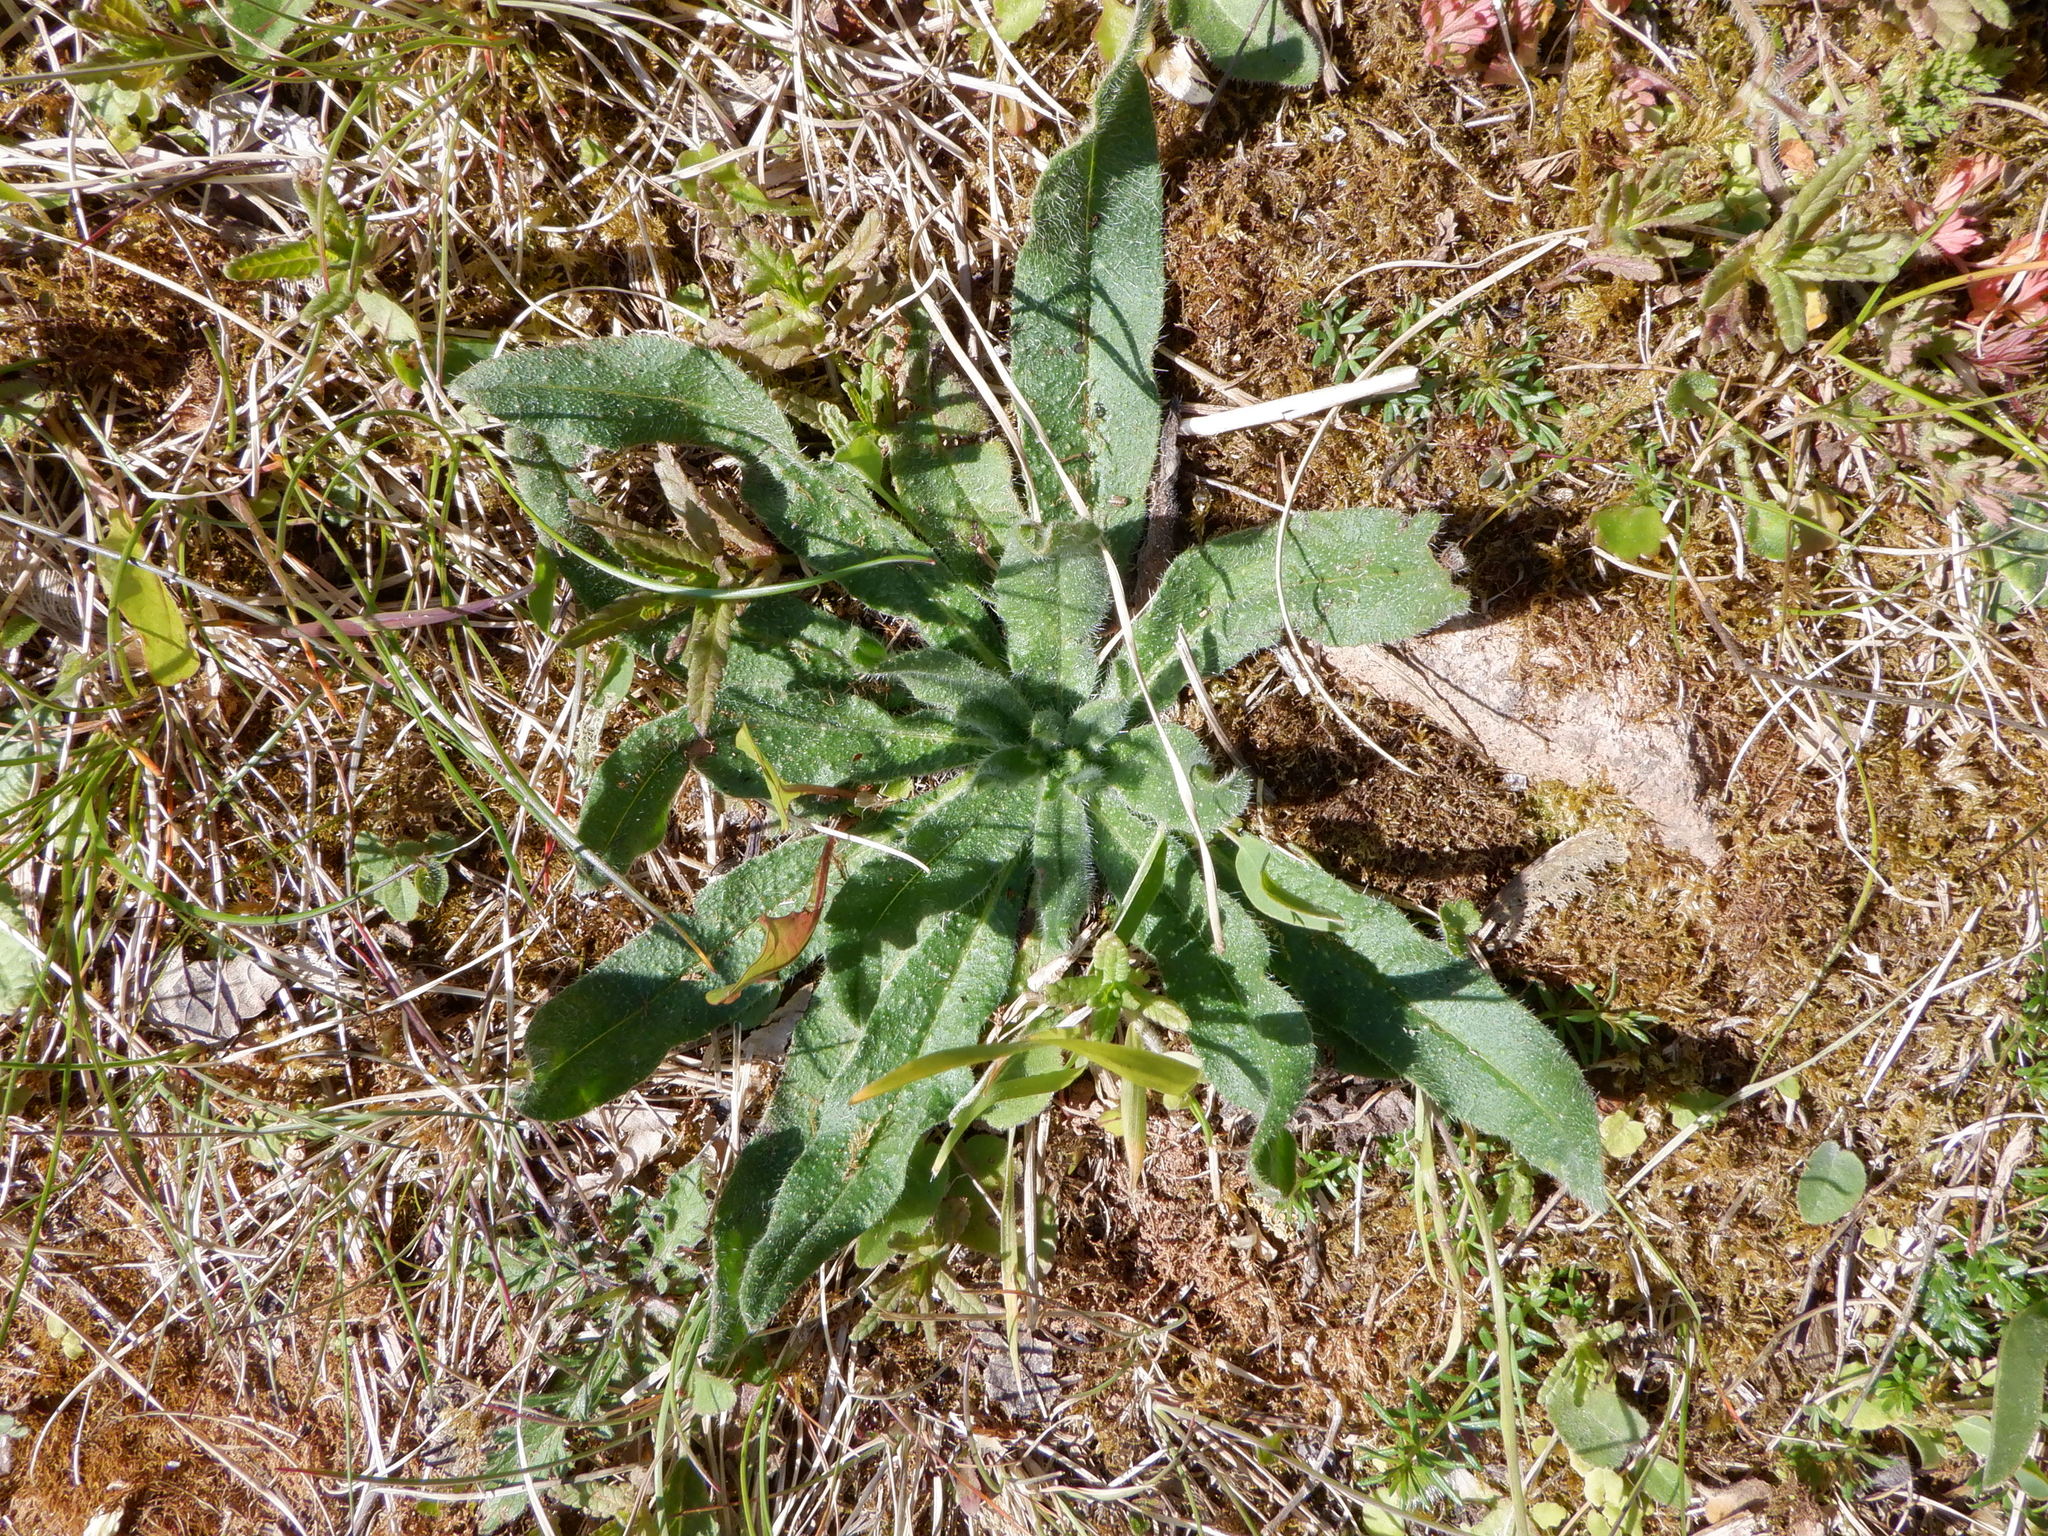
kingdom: Plantae
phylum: Tracheophyta
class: Magnoliopsida
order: Boraginales
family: Boraginaceae
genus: Echium
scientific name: Echium vulgare
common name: Common viper's bugloss
